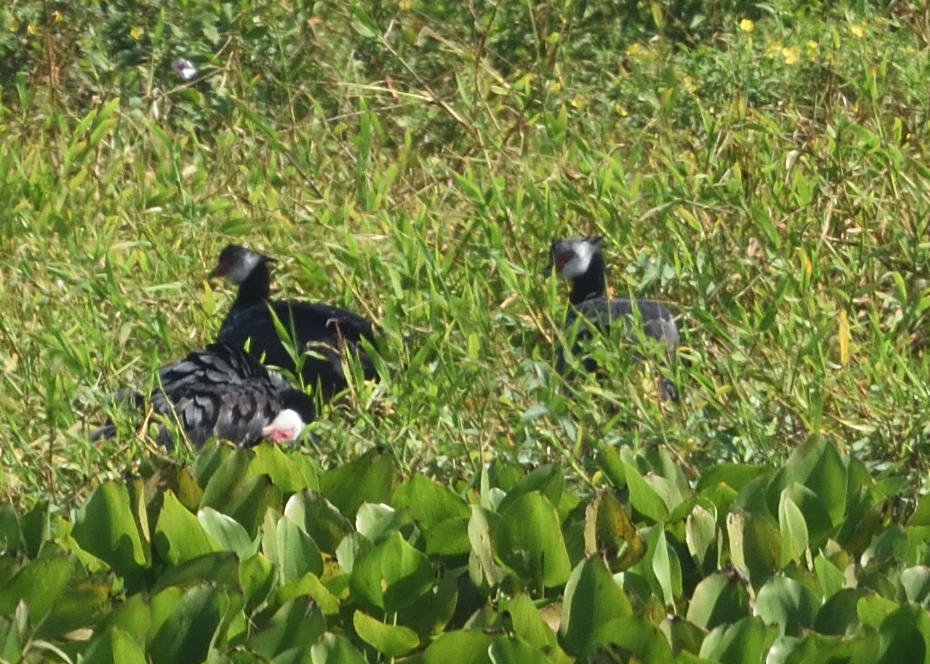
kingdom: Animalia
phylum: Chordata
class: Aves
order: Anseriformes
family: Anhimidae
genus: Chauna
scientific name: Chauna chavaria
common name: Northern screamer
